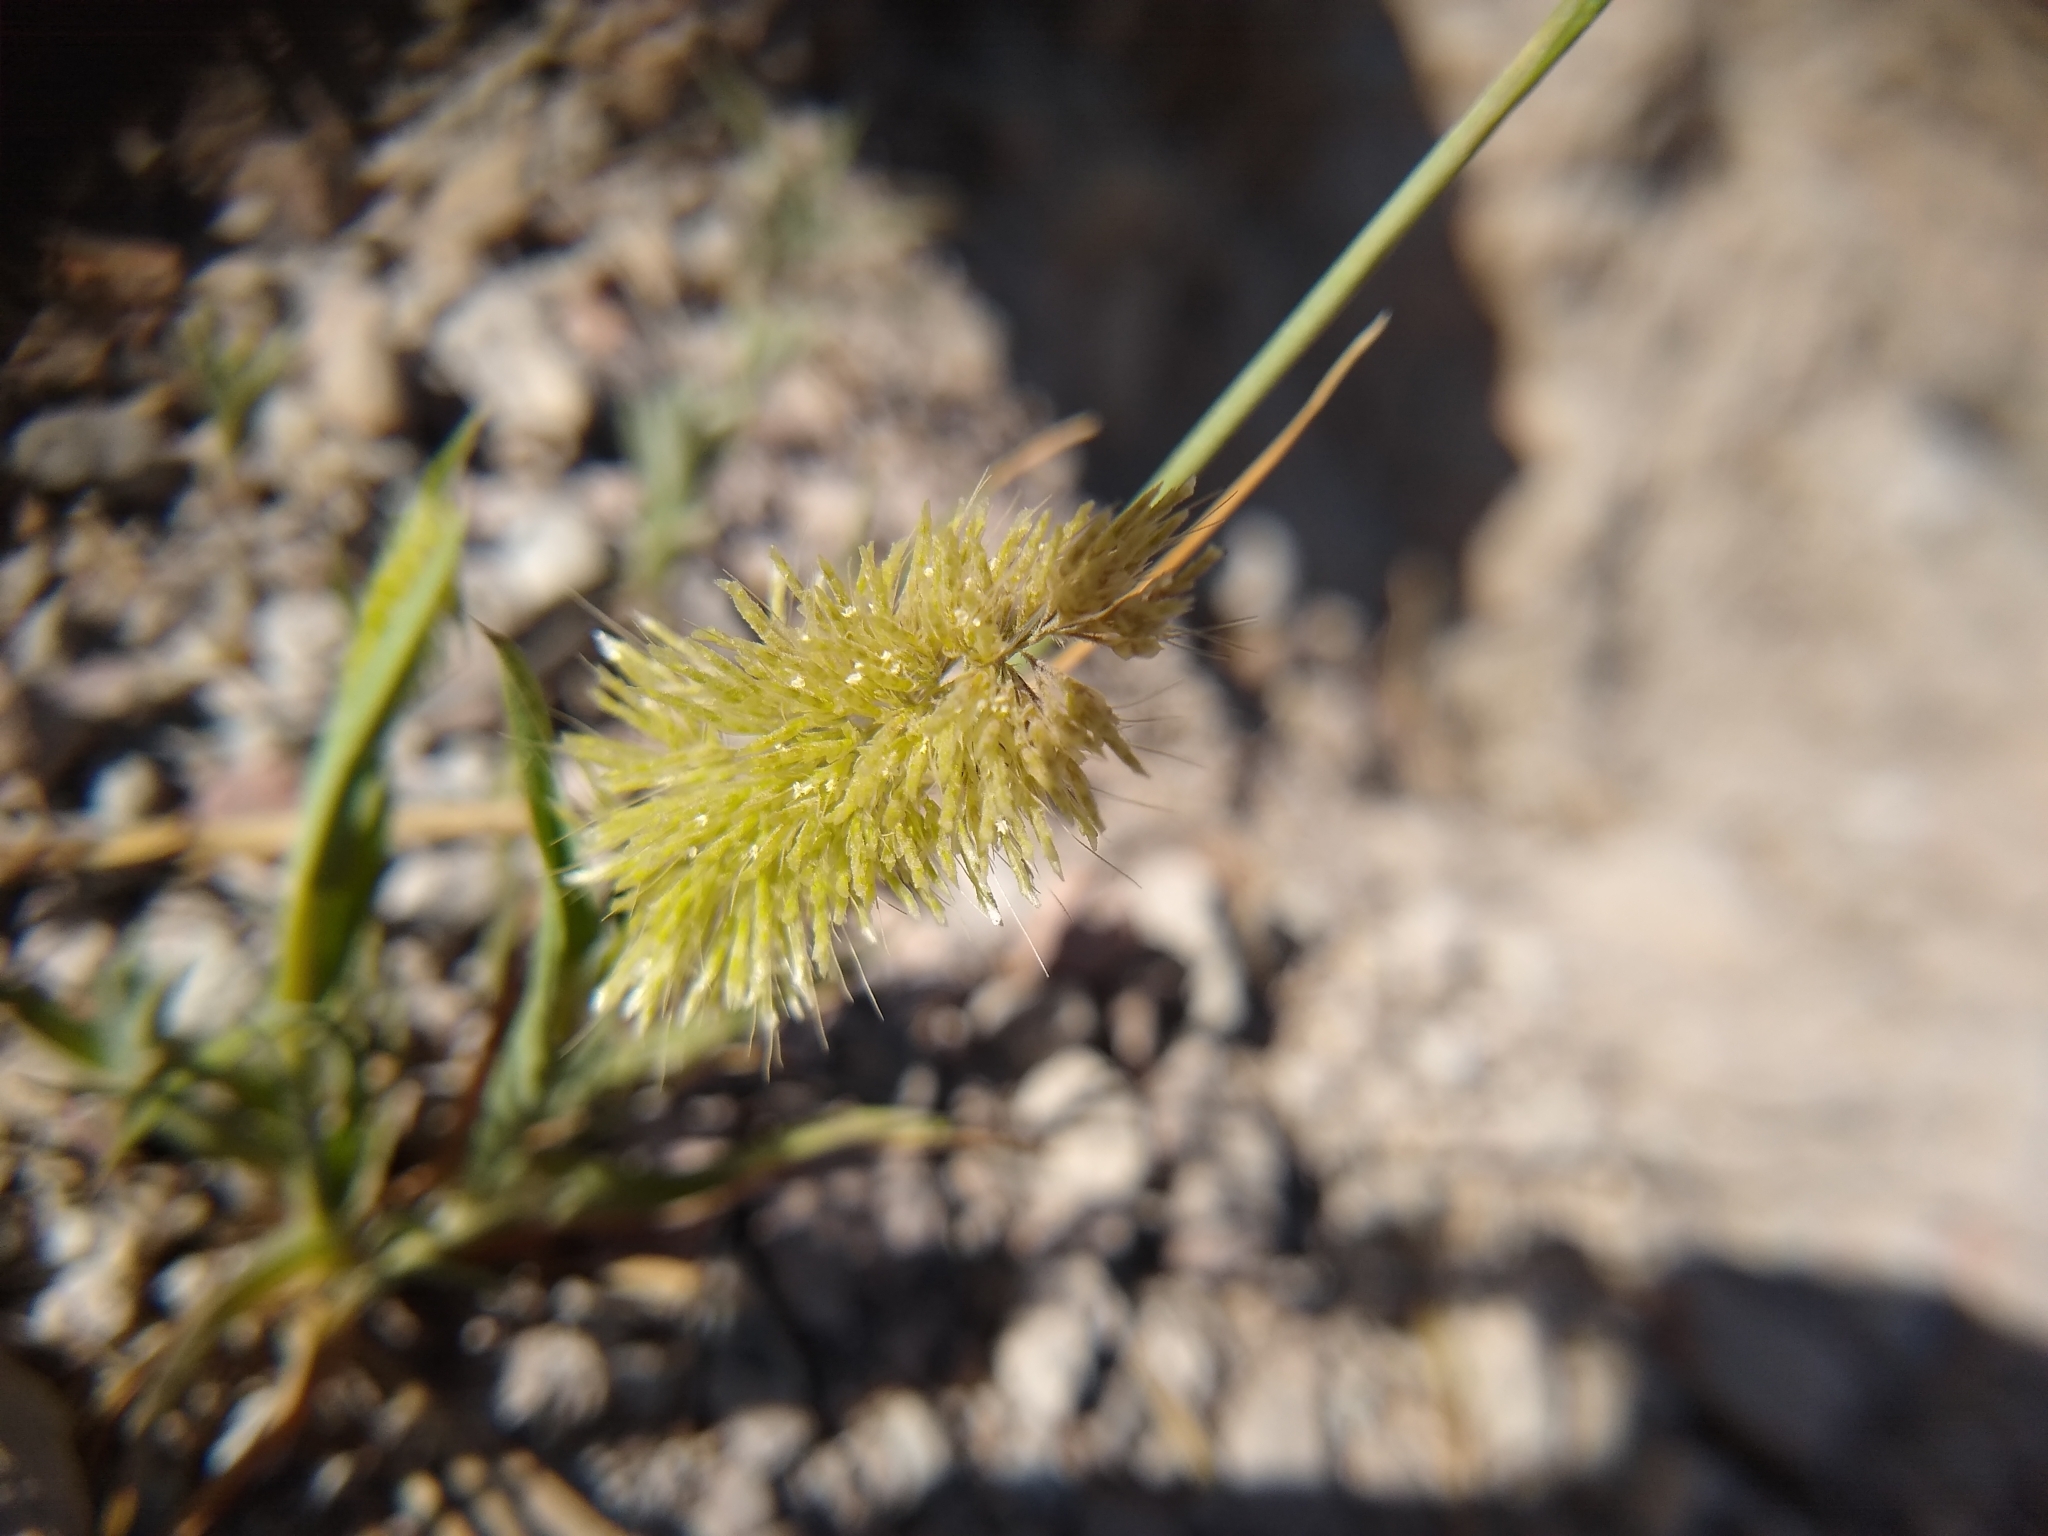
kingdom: Plantae
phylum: Tracheophyta
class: Liliopsida
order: Poales
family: Poaceae
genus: Lamarckia
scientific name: Lamarckia aurea
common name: Golden dog's-tail
